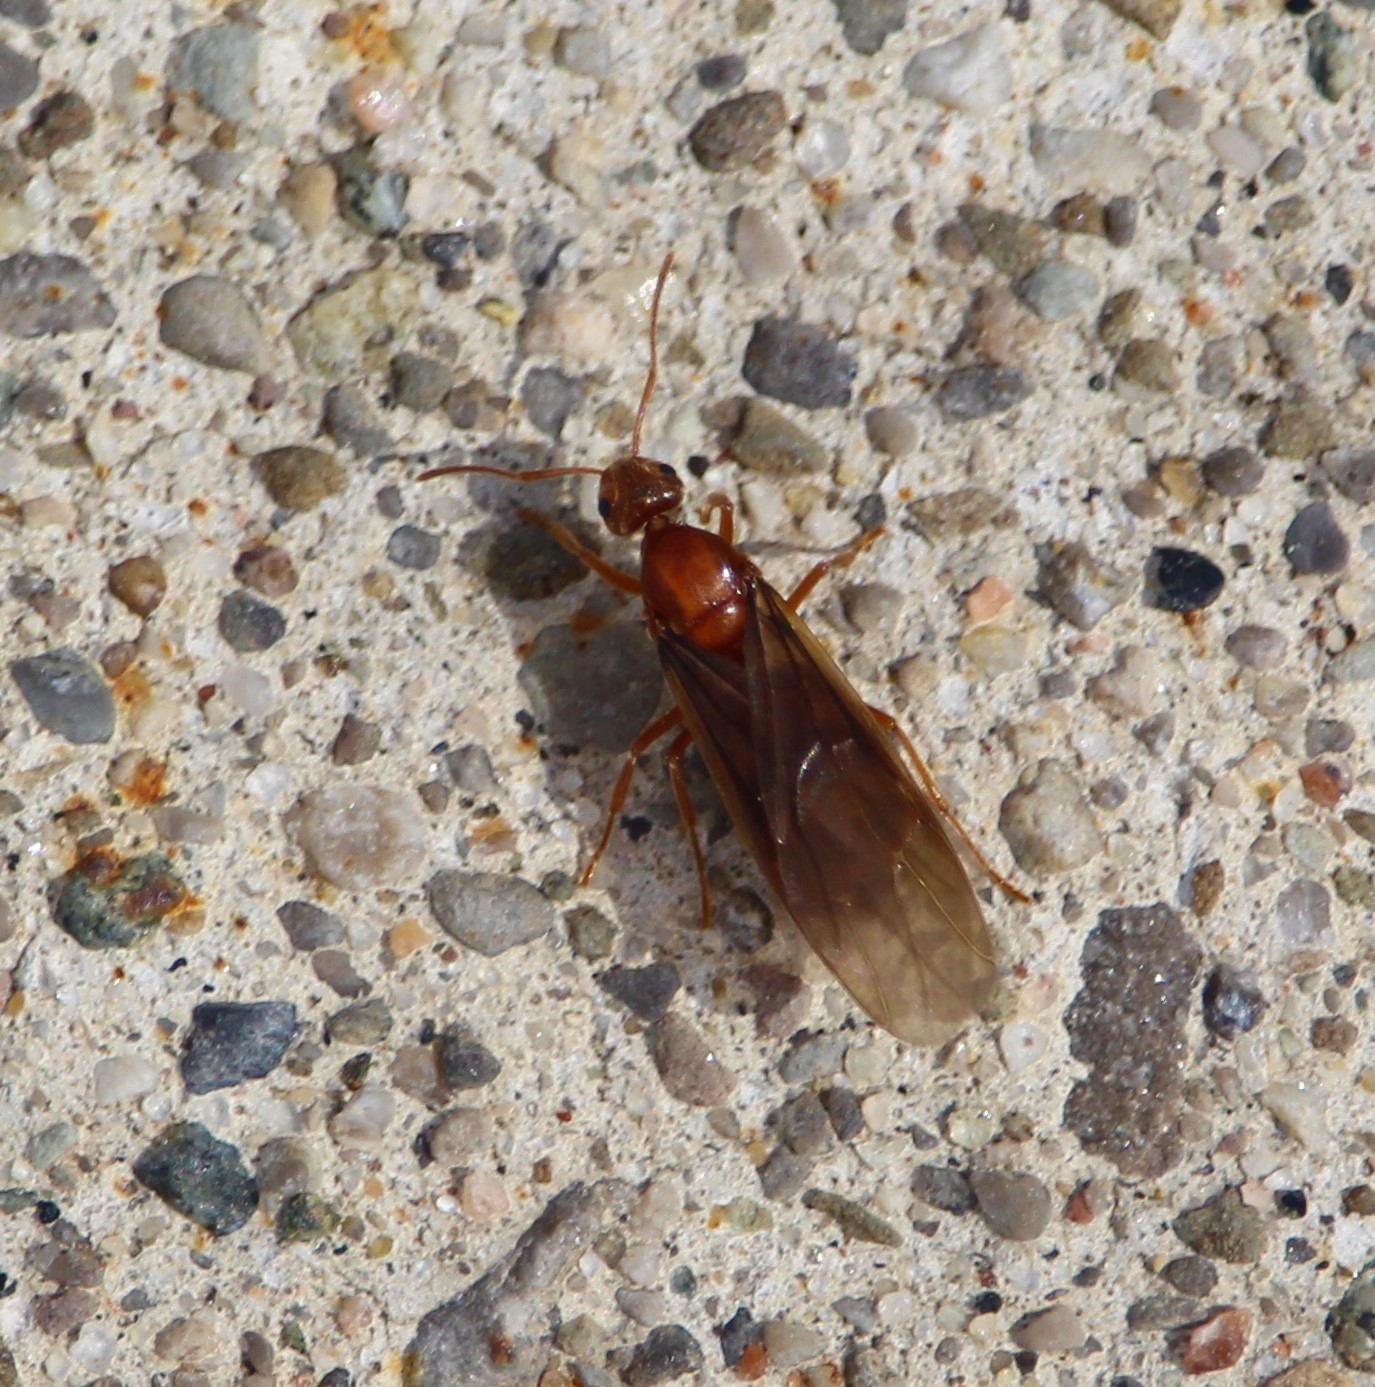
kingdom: Animalia
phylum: Arthropoda
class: Insecta
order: Hymenoptera
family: Formicidae
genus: Prenolepis
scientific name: Prenolepis imparis
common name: Small honey ant
